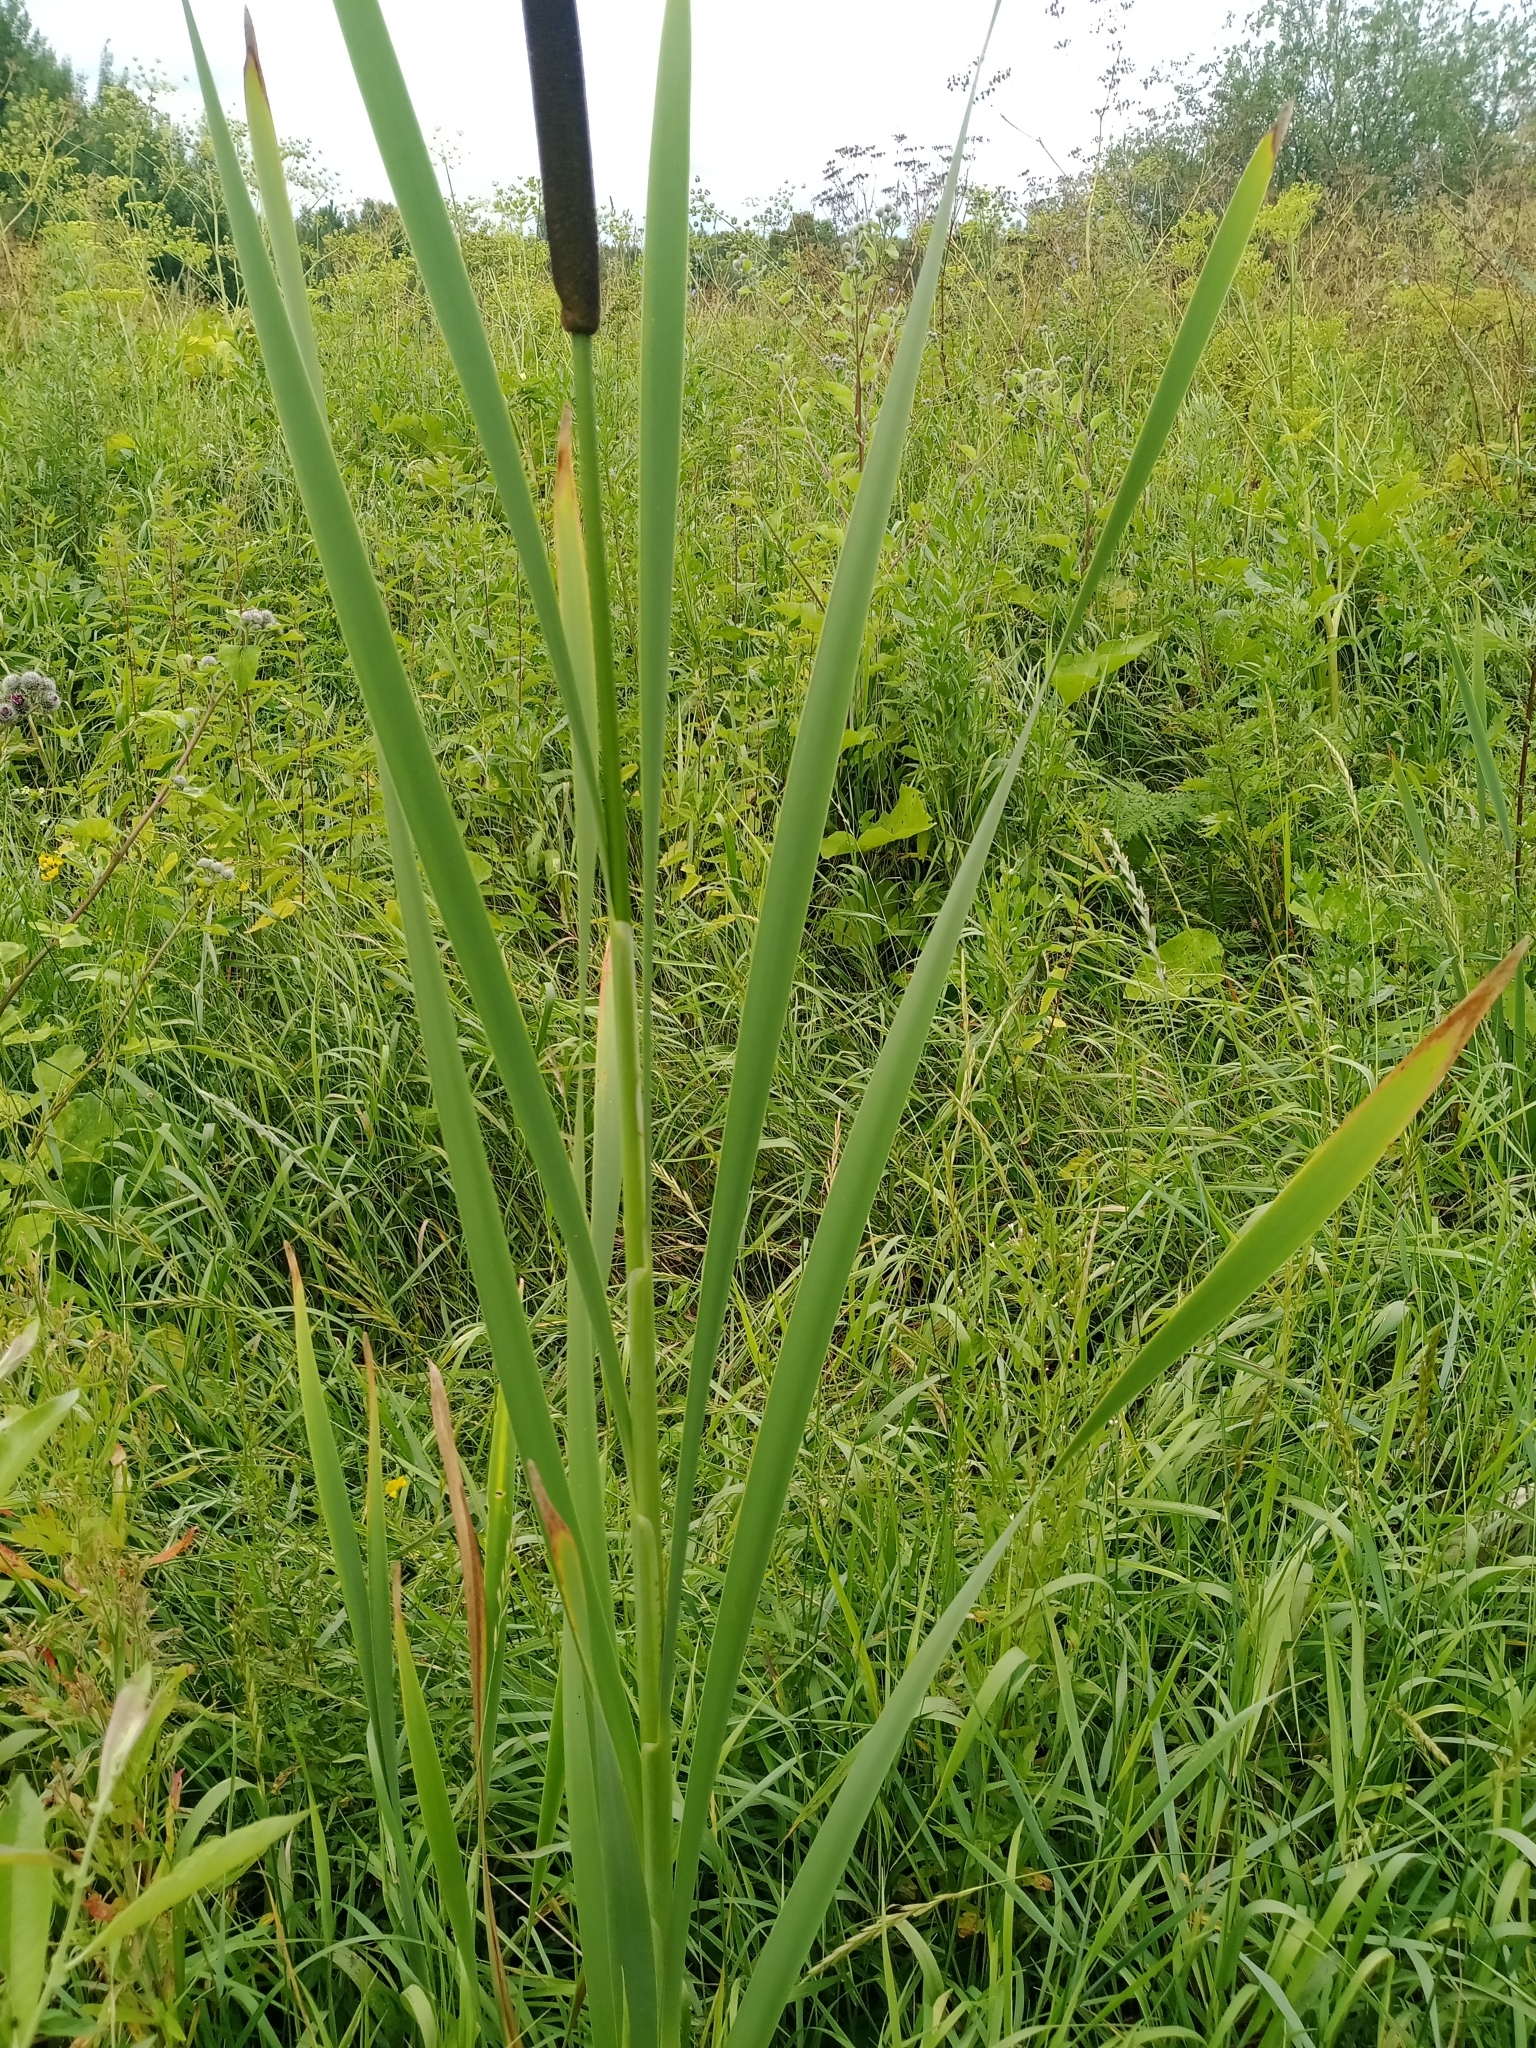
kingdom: Plantae
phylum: Tracheophyta
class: Liliopsida
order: Poales
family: Typhaceae
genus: Typha
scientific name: Typha latifolia
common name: Broadleaf cattail
